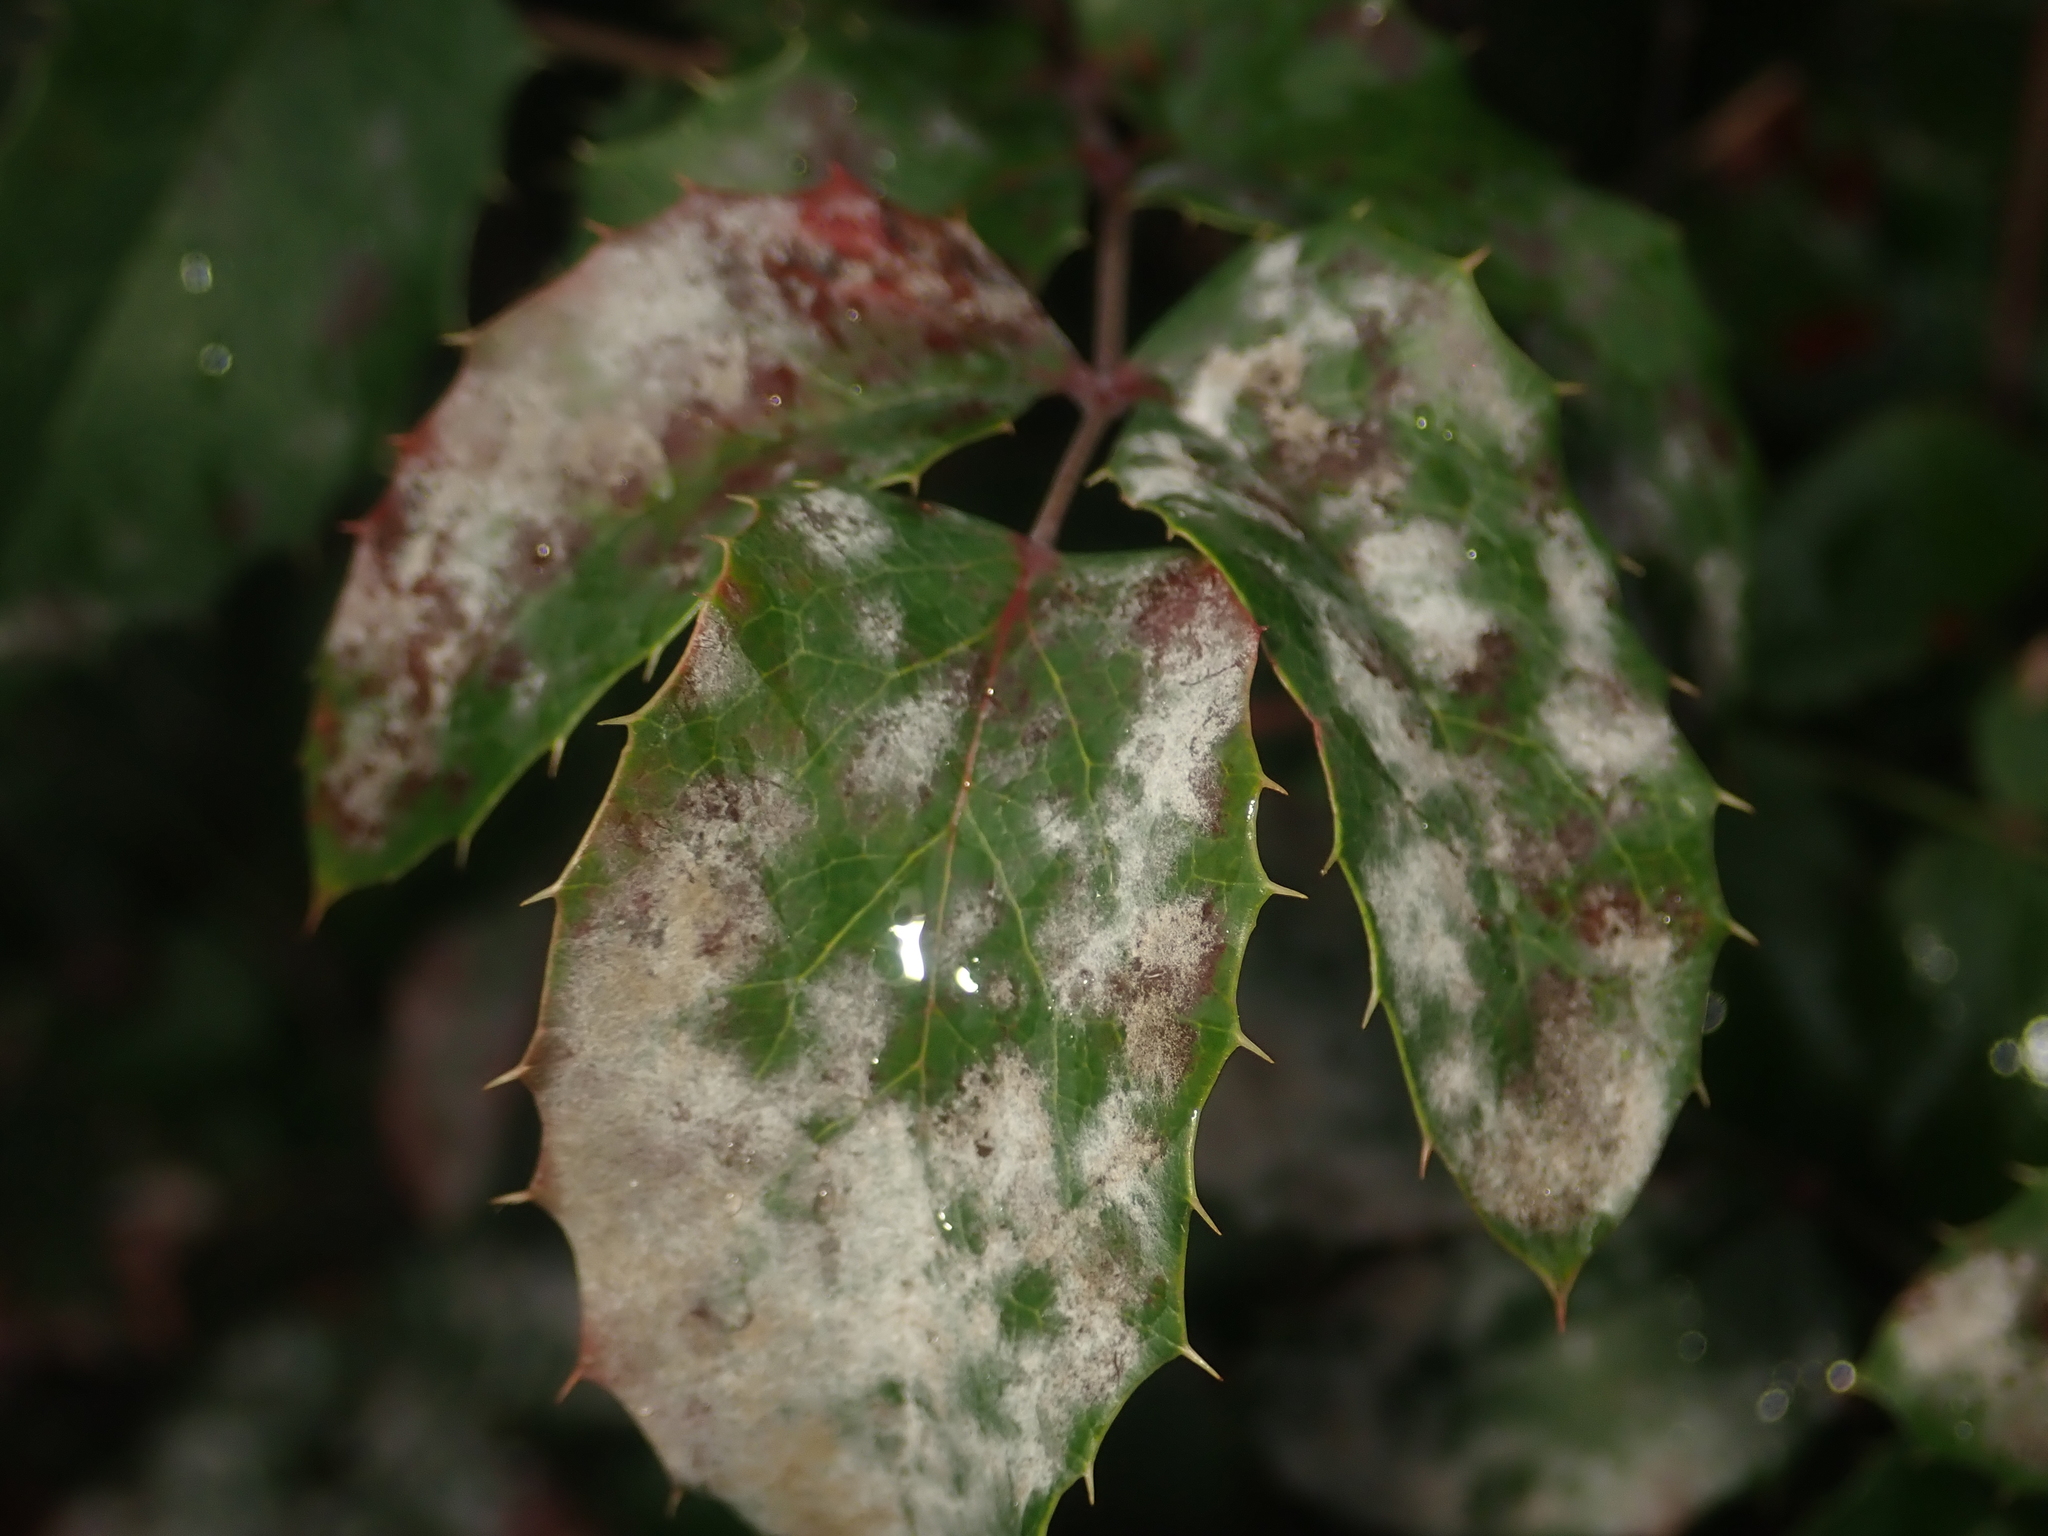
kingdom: Fungi
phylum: Ascomycota
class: Leotiomycetes
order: Helotiales
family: Erysiphaceae
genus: Erysiphe
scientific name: Erysiphe berberidis
